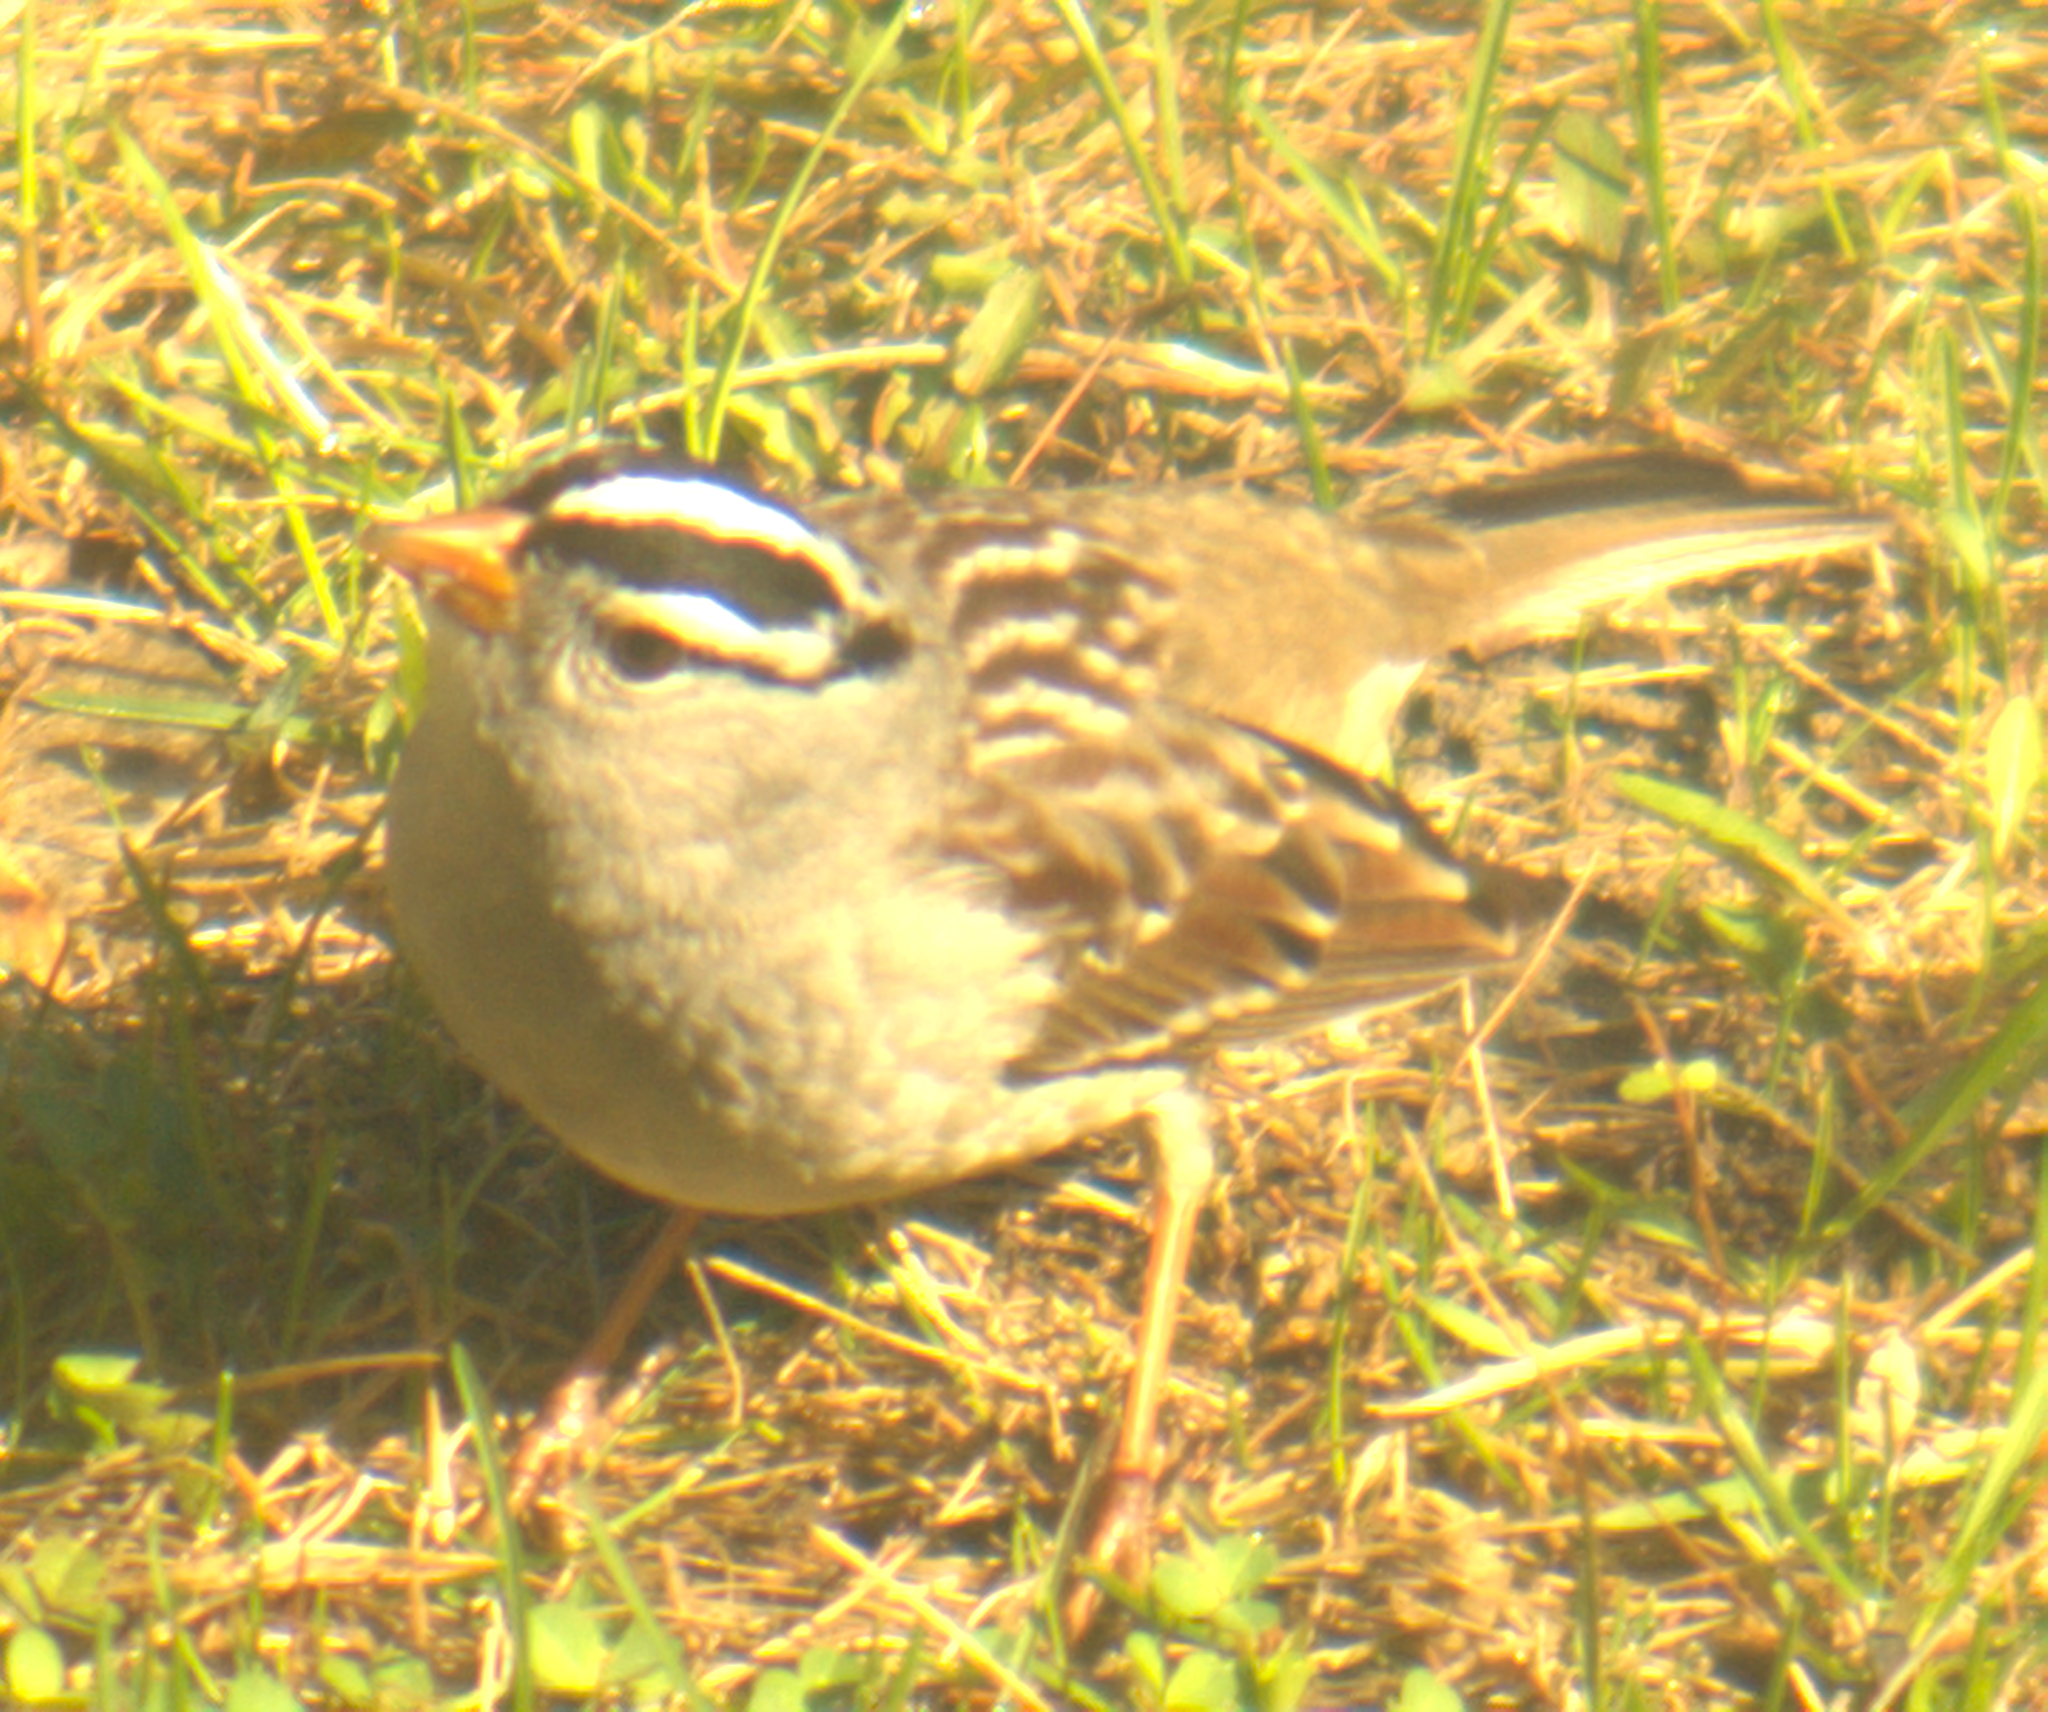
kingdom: Animalia
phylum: Chordata
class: Aves
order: Passeriformes
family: Passerellidae
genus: Zonotrichia
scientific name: Zonotrichia leucophrys
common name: White-crowned sparrow
